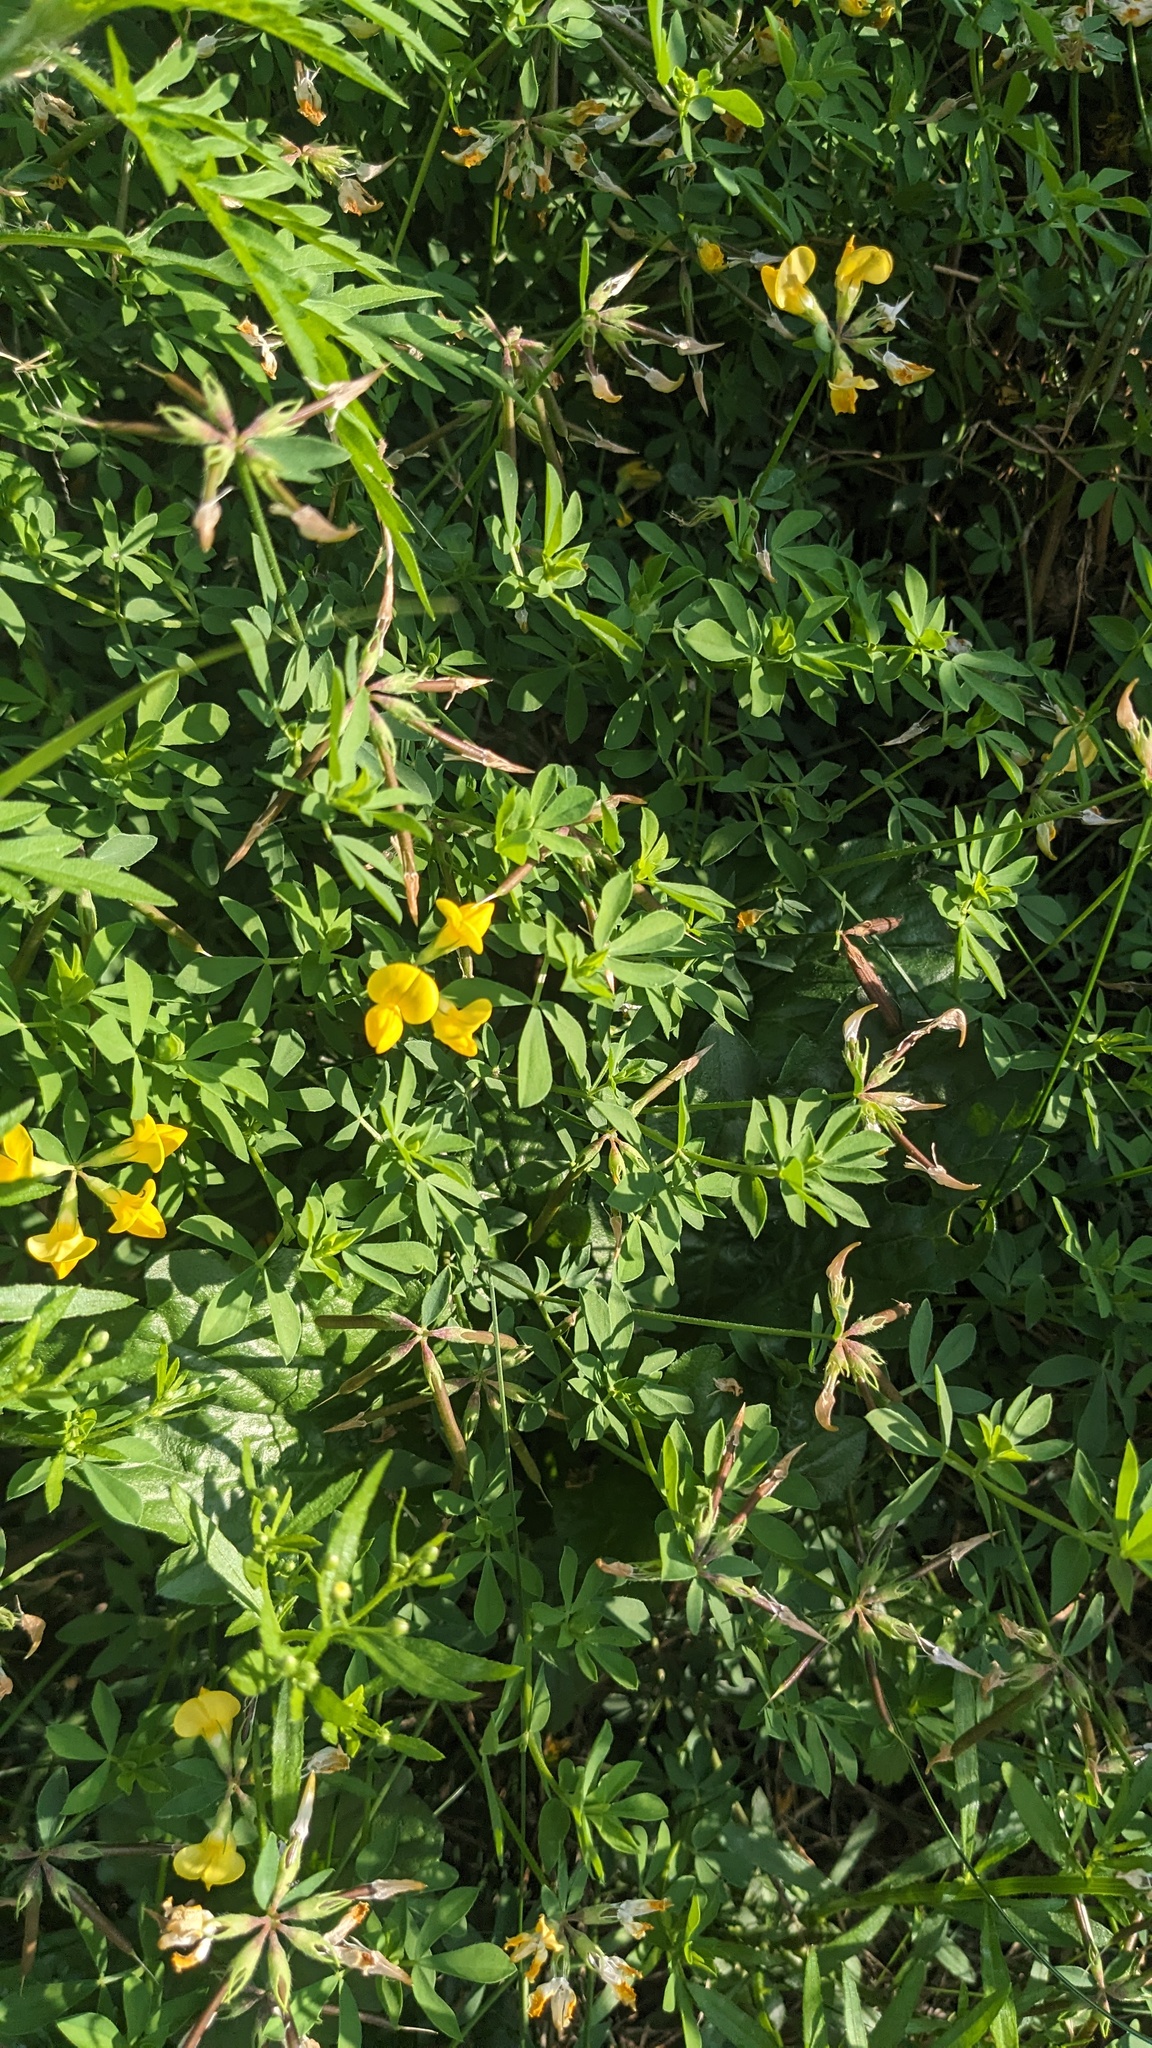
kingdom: Plantae
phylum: Tracheophyta
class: Magnoliopsida
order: Fabales
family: Fabaceae
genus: Lotus
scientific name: Lotus corniculatus
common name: Common bird's-foot-trefoil
